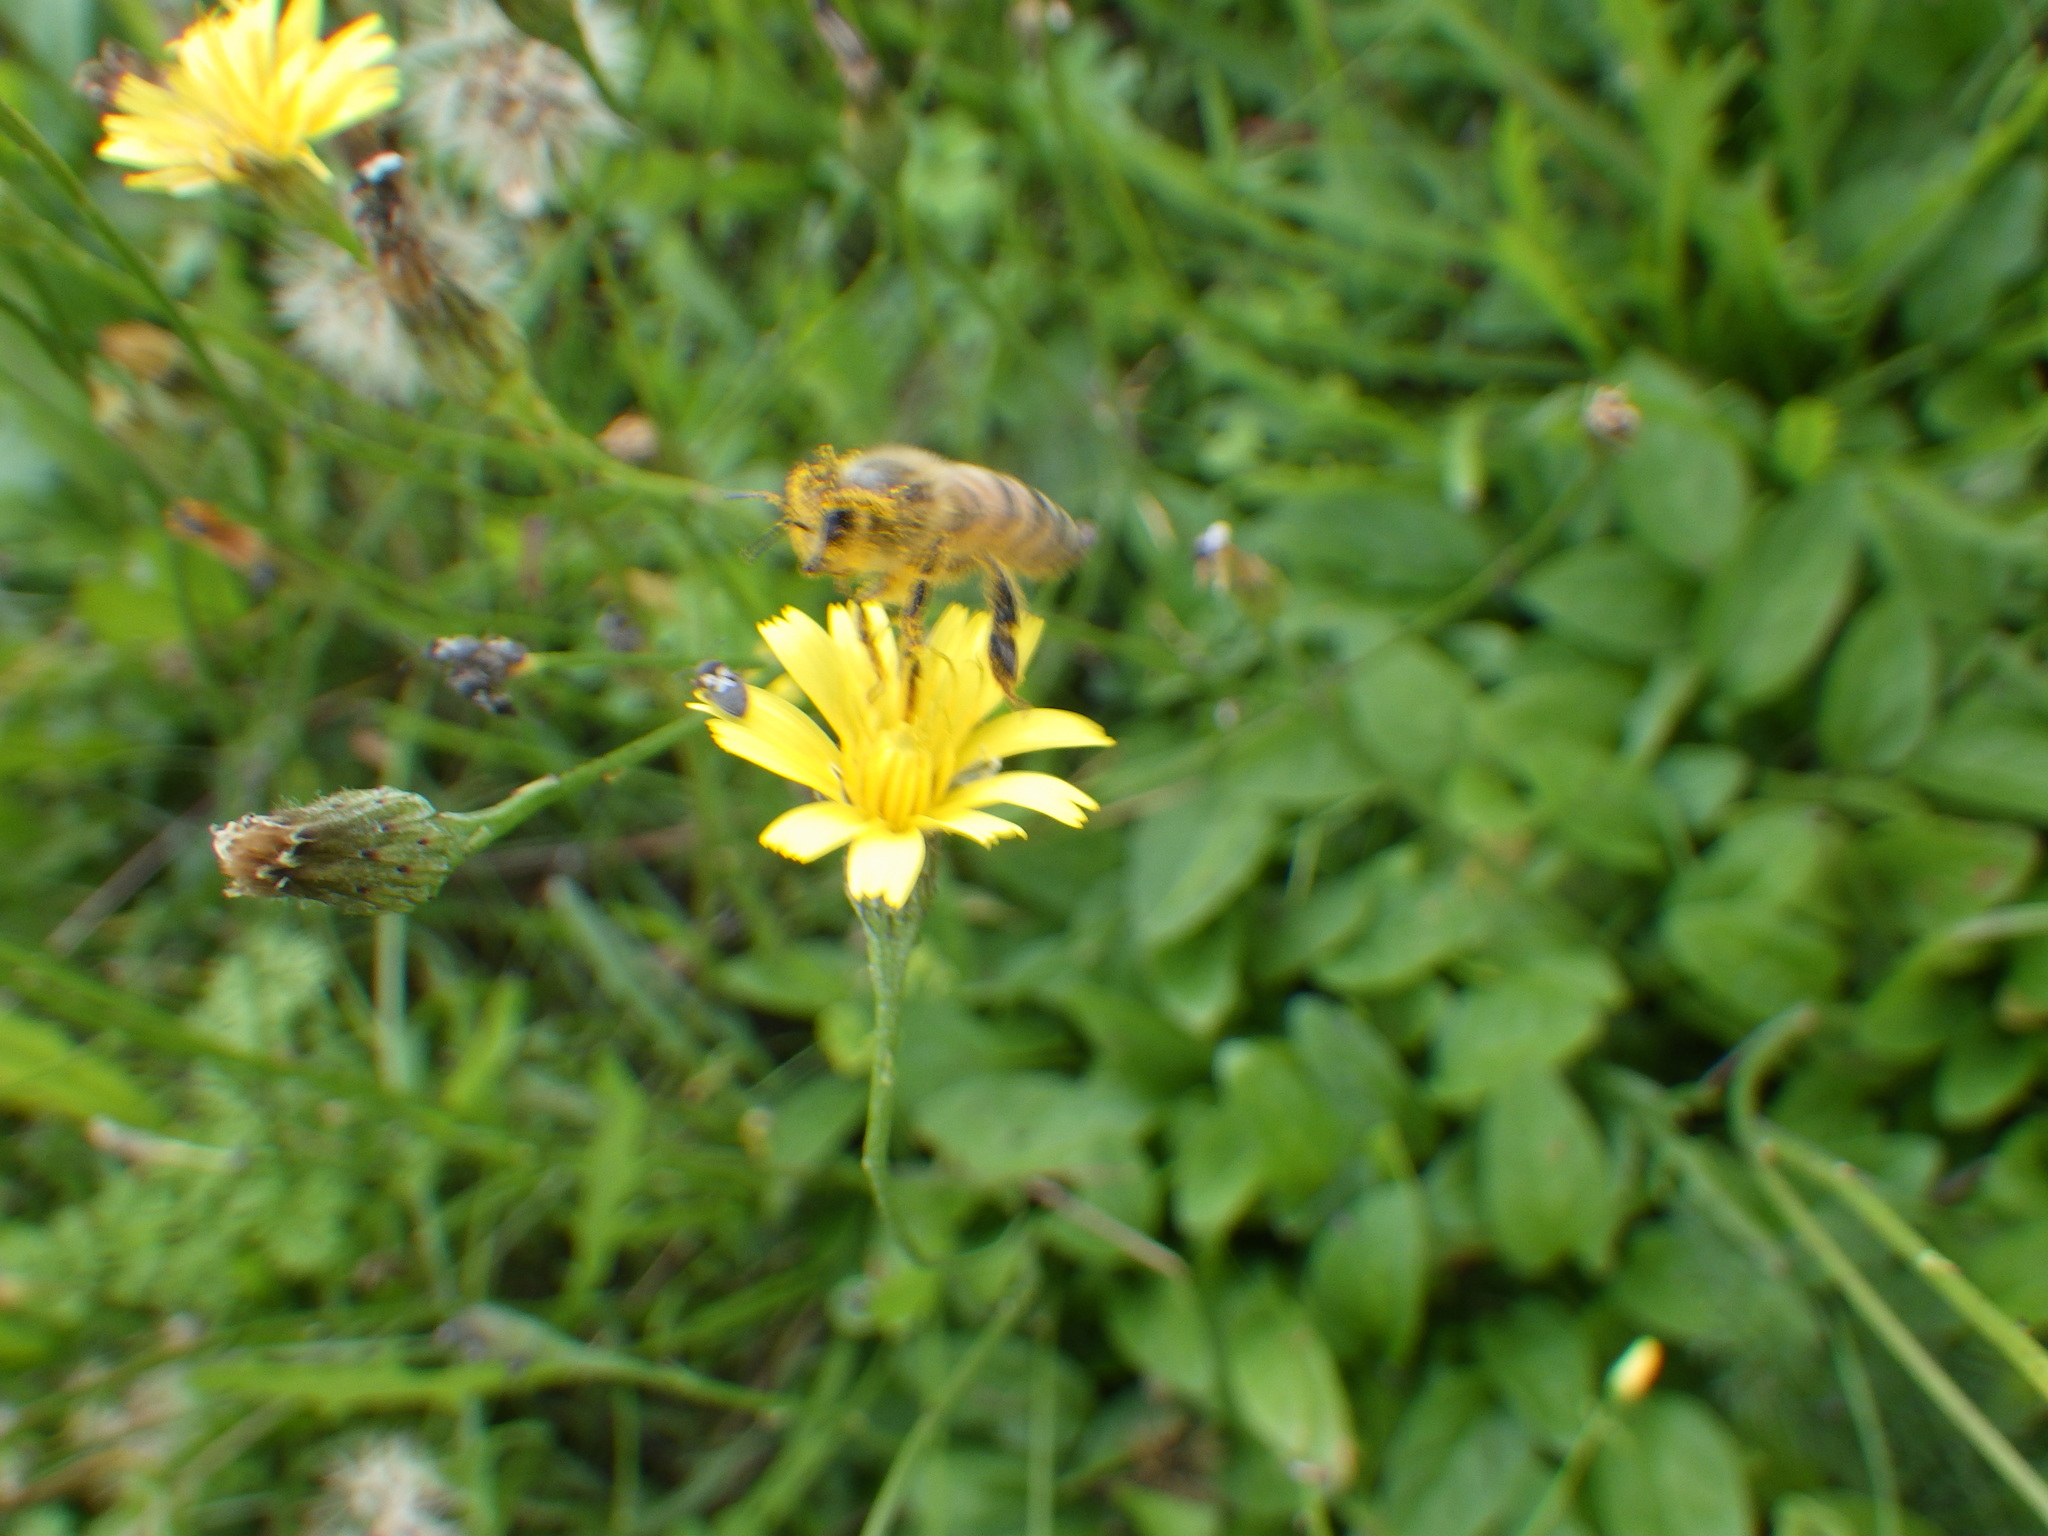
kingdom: Animalia
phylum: Arthropoda
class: Insecta
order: Hymenoptera
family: Apidae
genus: Apis
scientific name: Apis mellifera
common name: Honey bee
